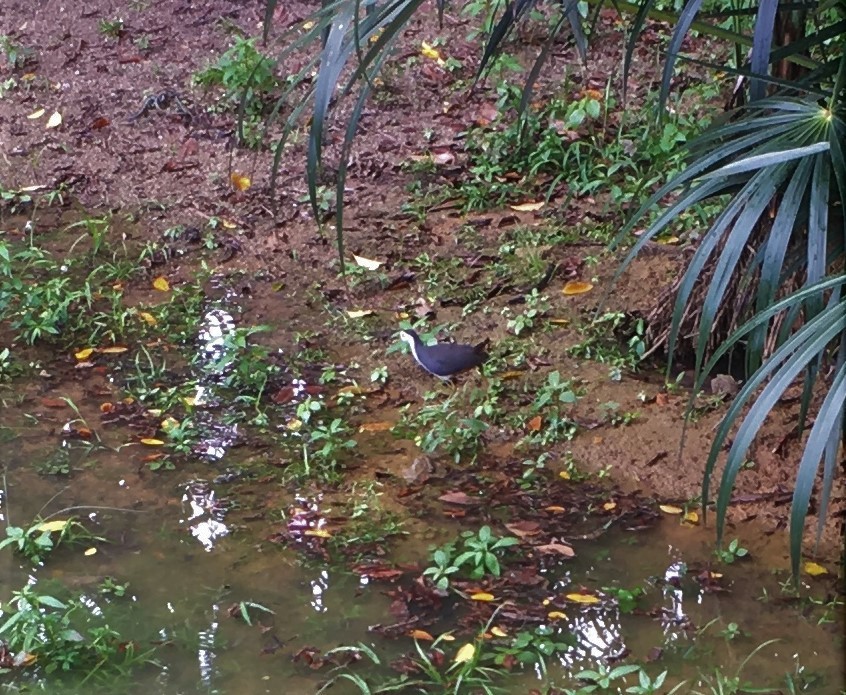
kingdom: Animalia
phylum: Chordata
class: Aves
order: Gruiformes
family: Rallidae
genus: Amaurornis
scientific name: Amaurornis phoenicurus
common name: White-breasted waterhen
